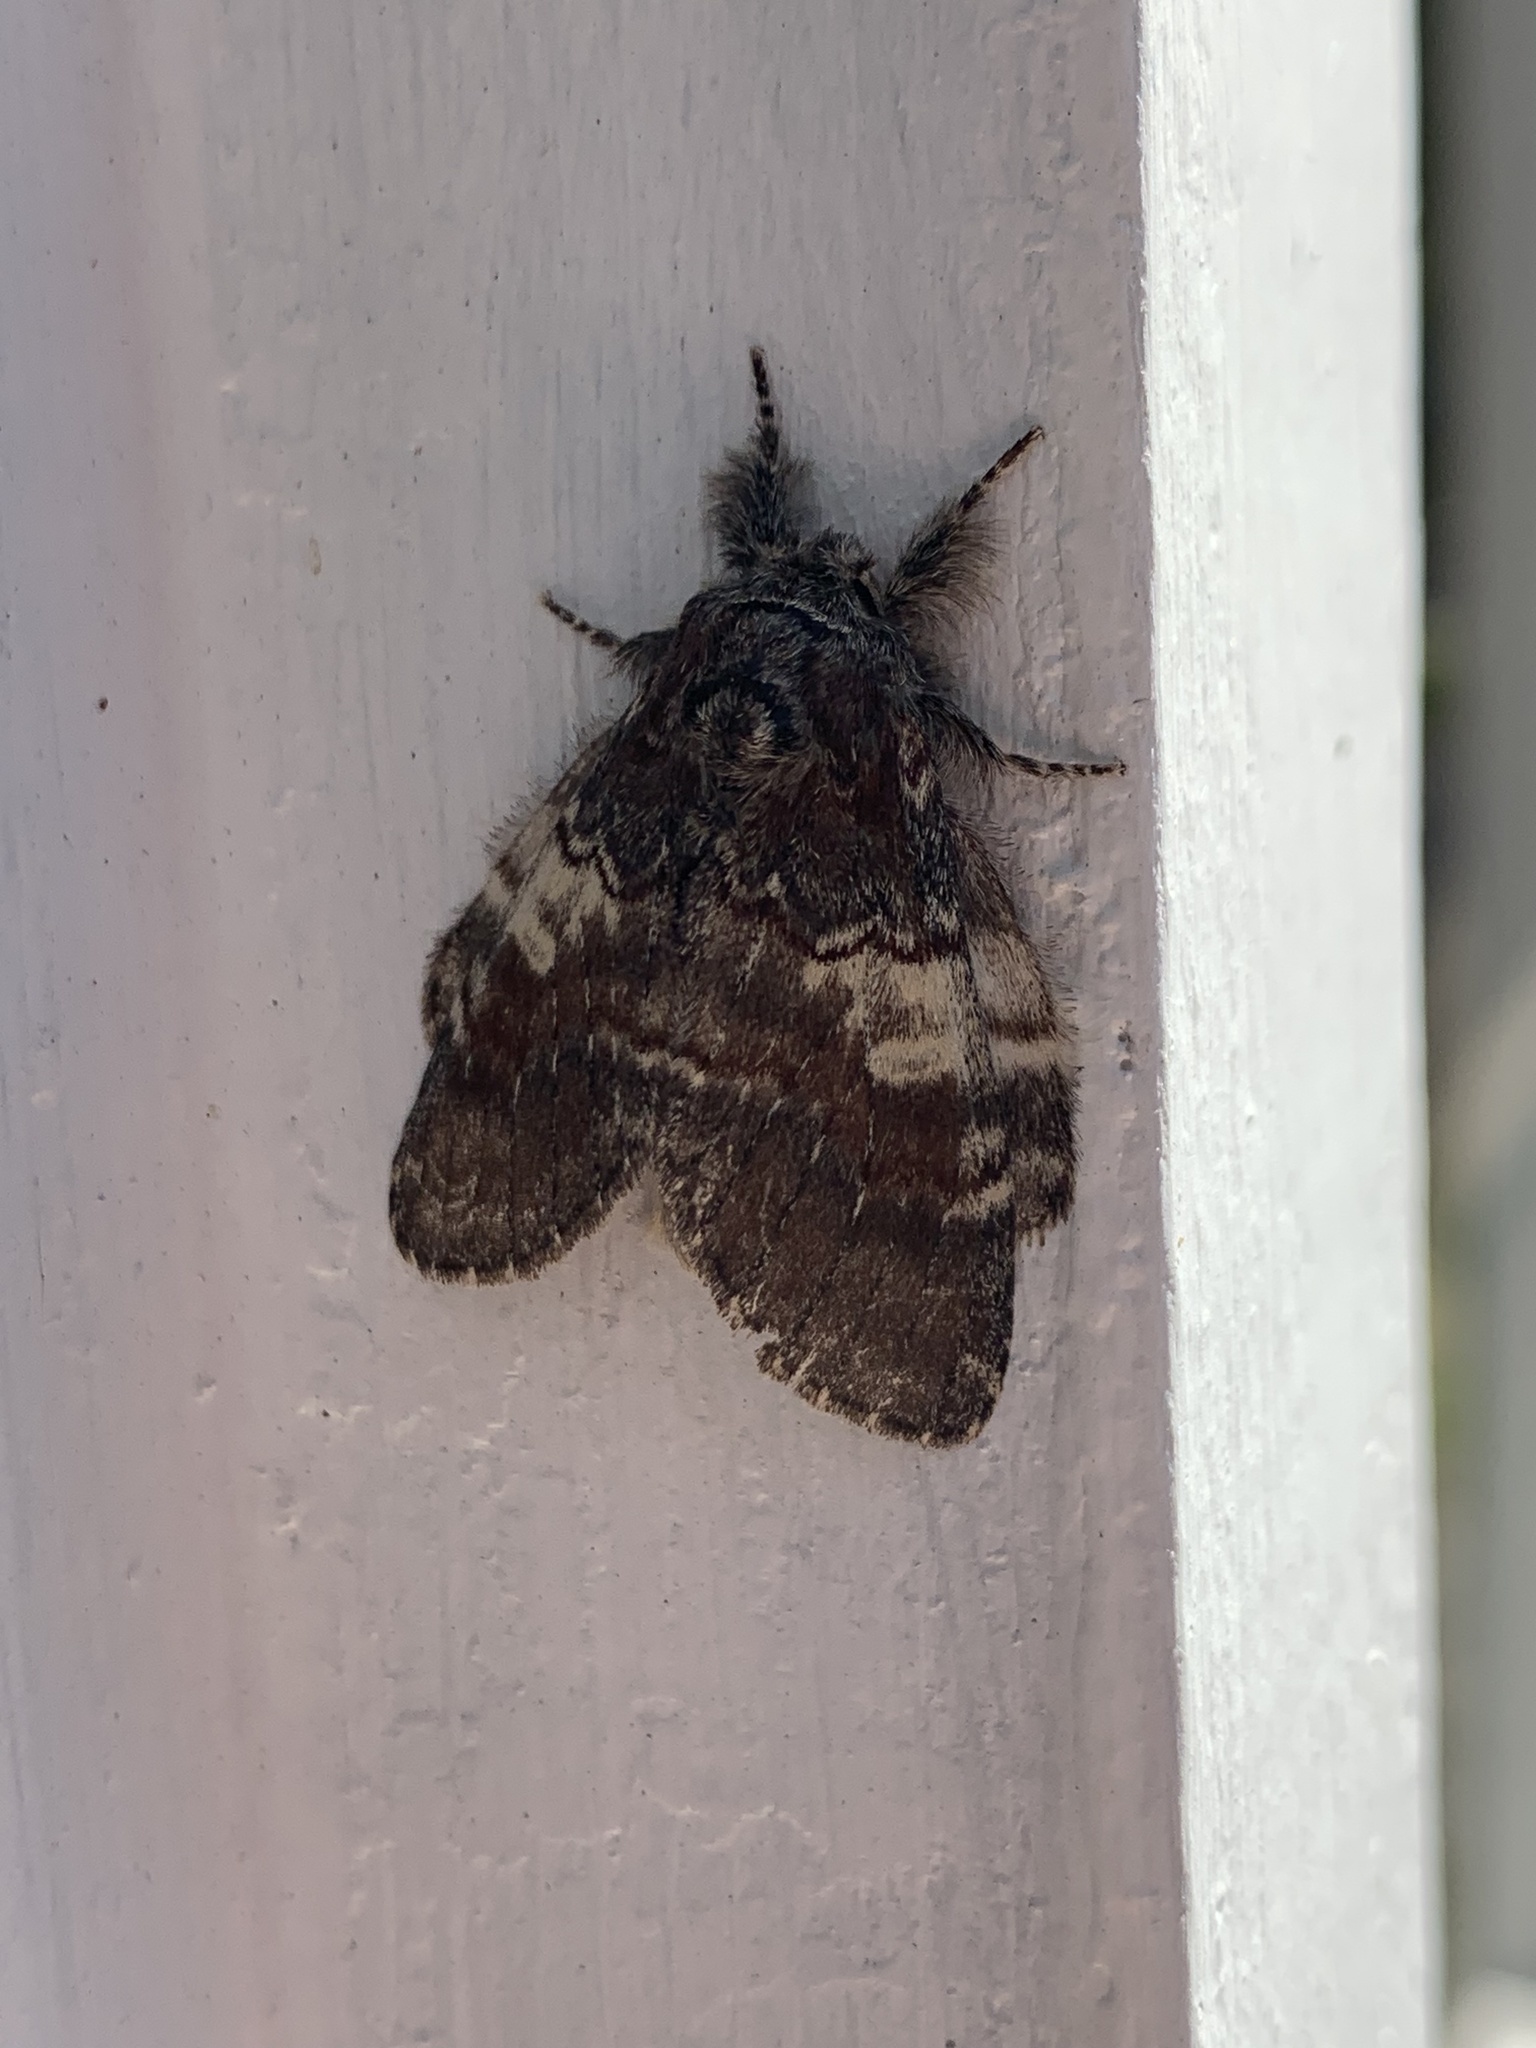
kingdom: Animalia
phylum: Arthropoda
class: Insecta
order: Lepidoptera
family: Notodontidae
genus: Peridea
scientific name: Peridea ferruginea
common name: Chocolate prominent
